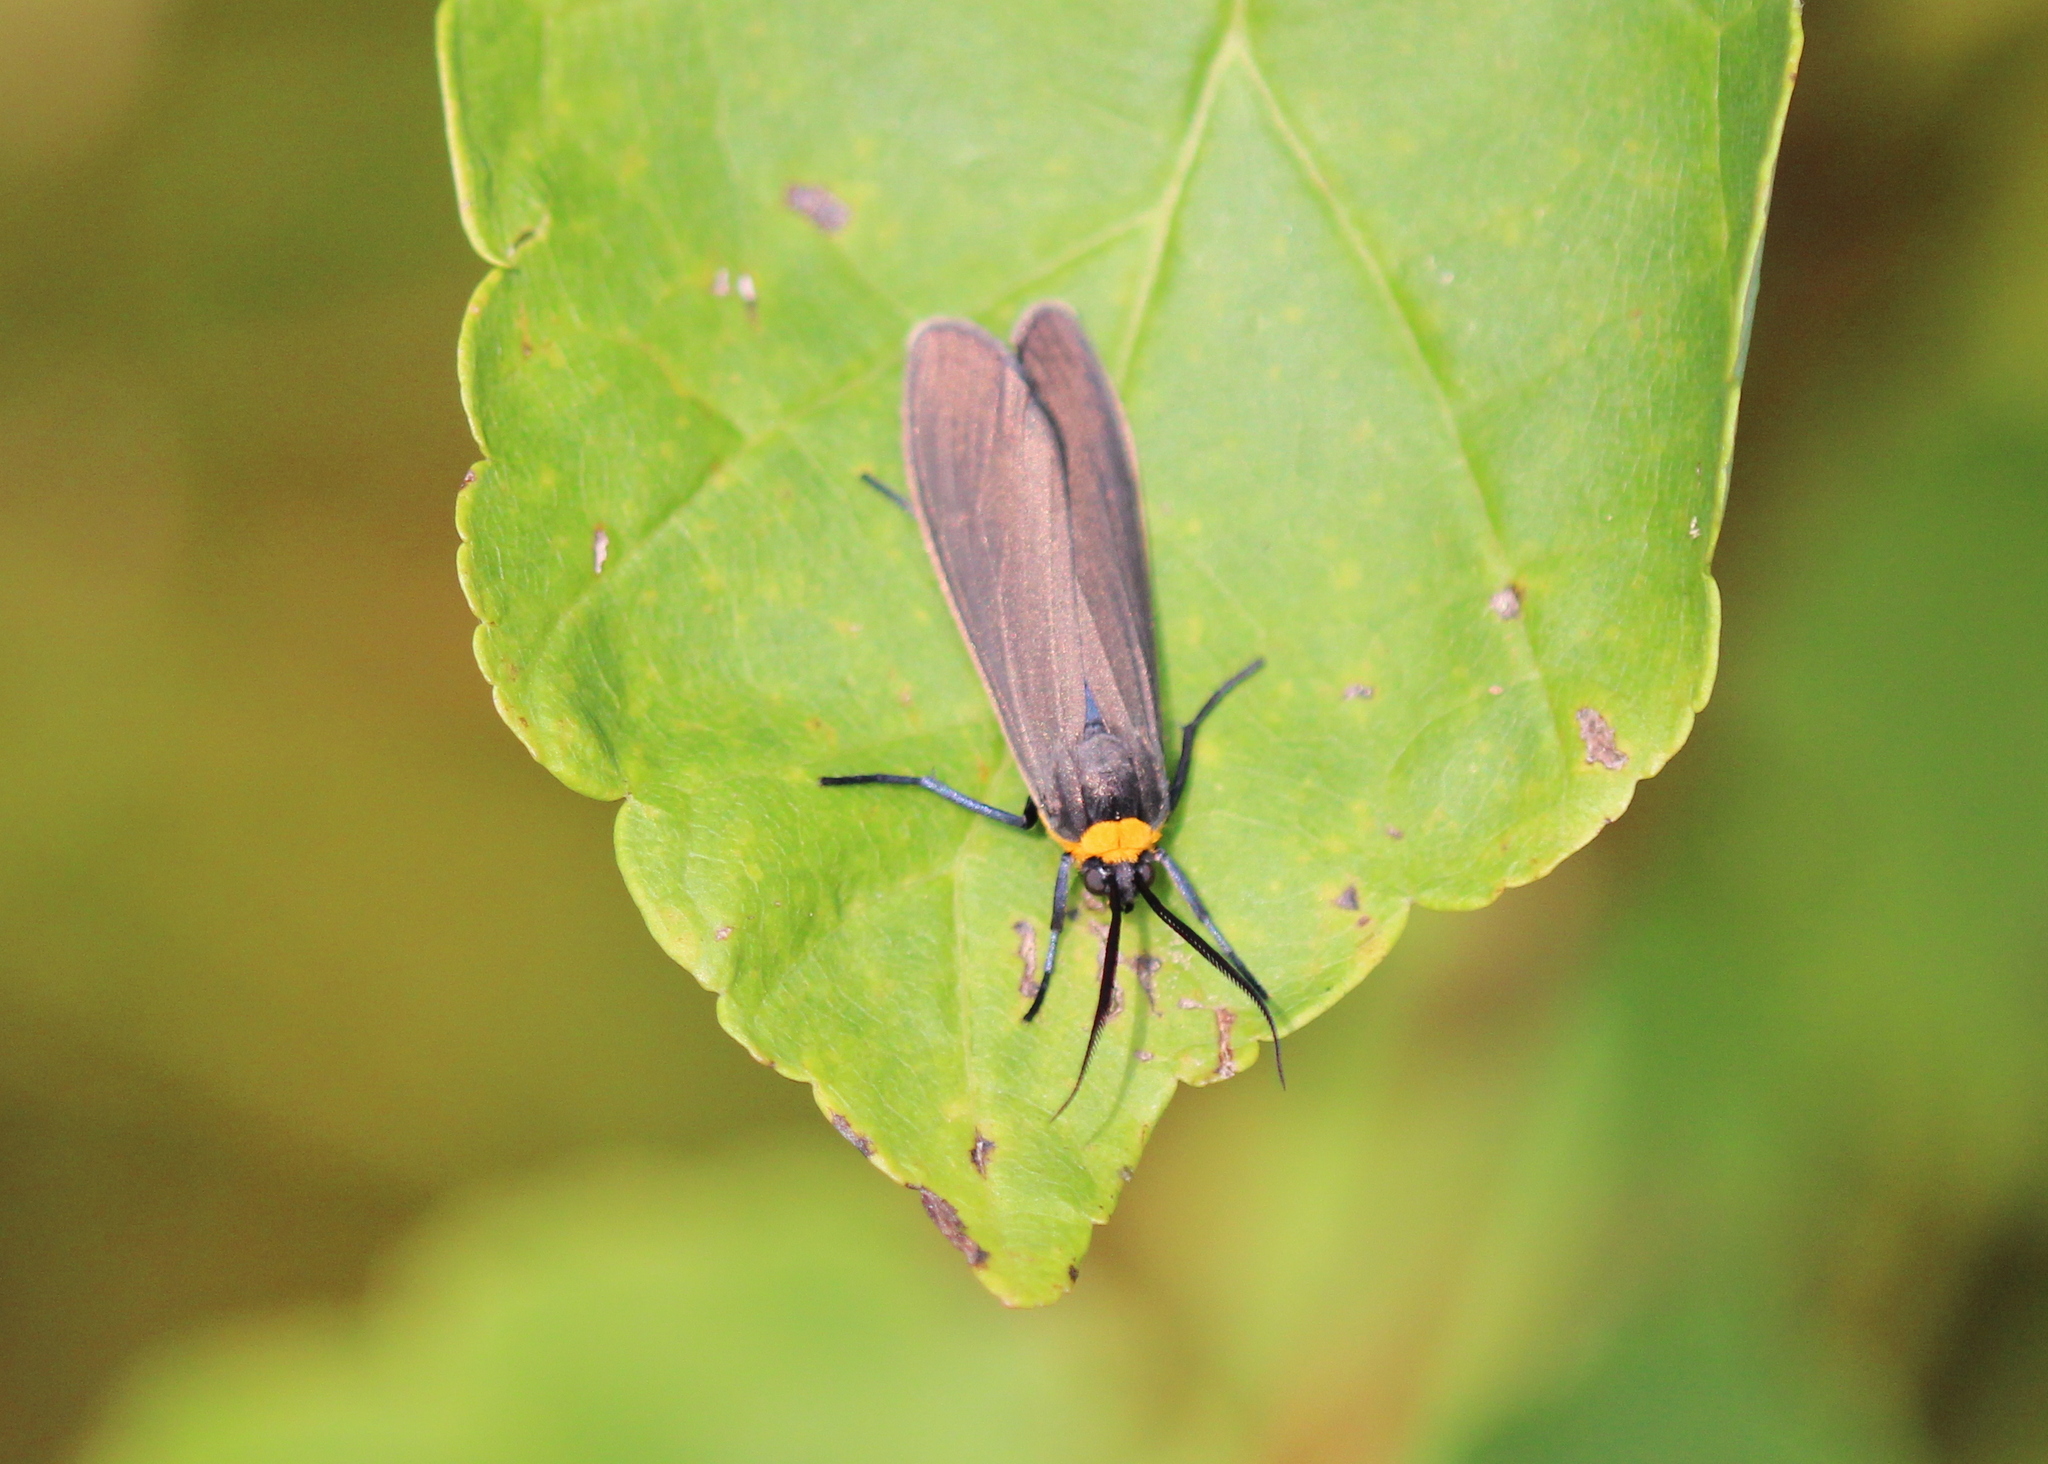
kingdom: Animalia
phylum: Arthropoda
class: Insecta
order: Lepidoptera
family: Erebidae
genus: Cisseps
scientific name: Cisseps fulvicollis
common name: Yellow-collared scape moth
